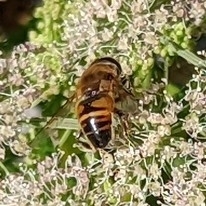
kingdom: Animalia
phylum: Arthropoda
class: Insecta
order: Diptera
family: Syrphidae
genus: Eristalis
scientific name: Eristalis tenax
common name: Drone fly
